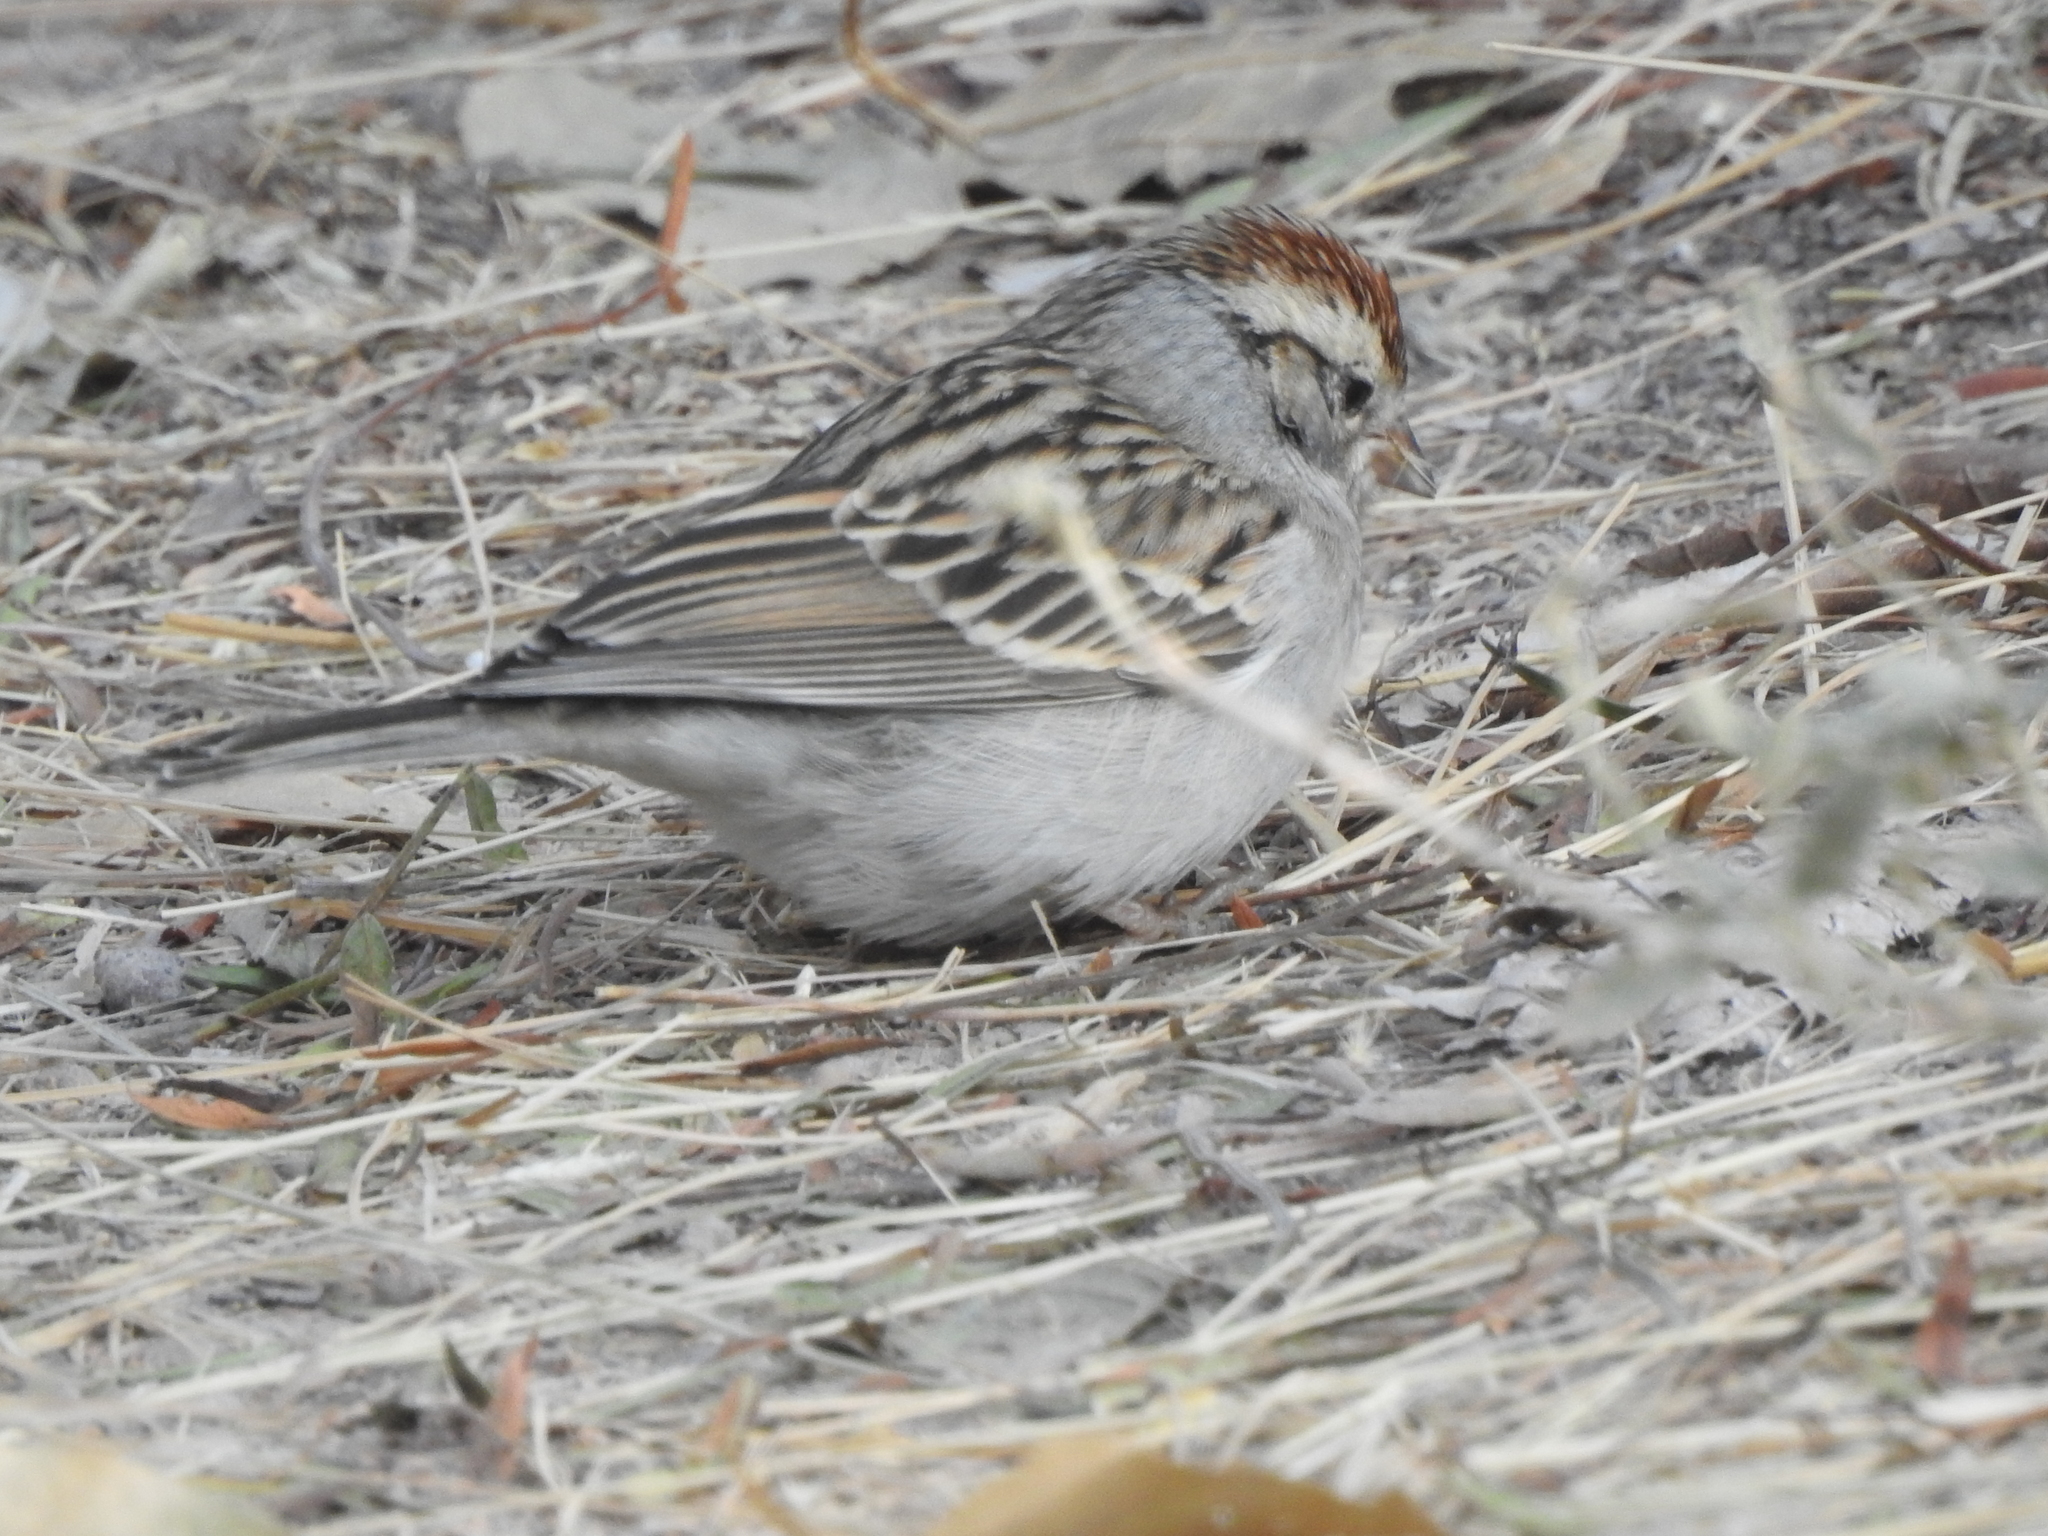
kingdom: Animalia
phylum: Chordata
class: Aves
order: Passeriformes
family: Passerellidae
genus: Spizella
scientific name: Spizella passerina
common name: Chipping sparrow
